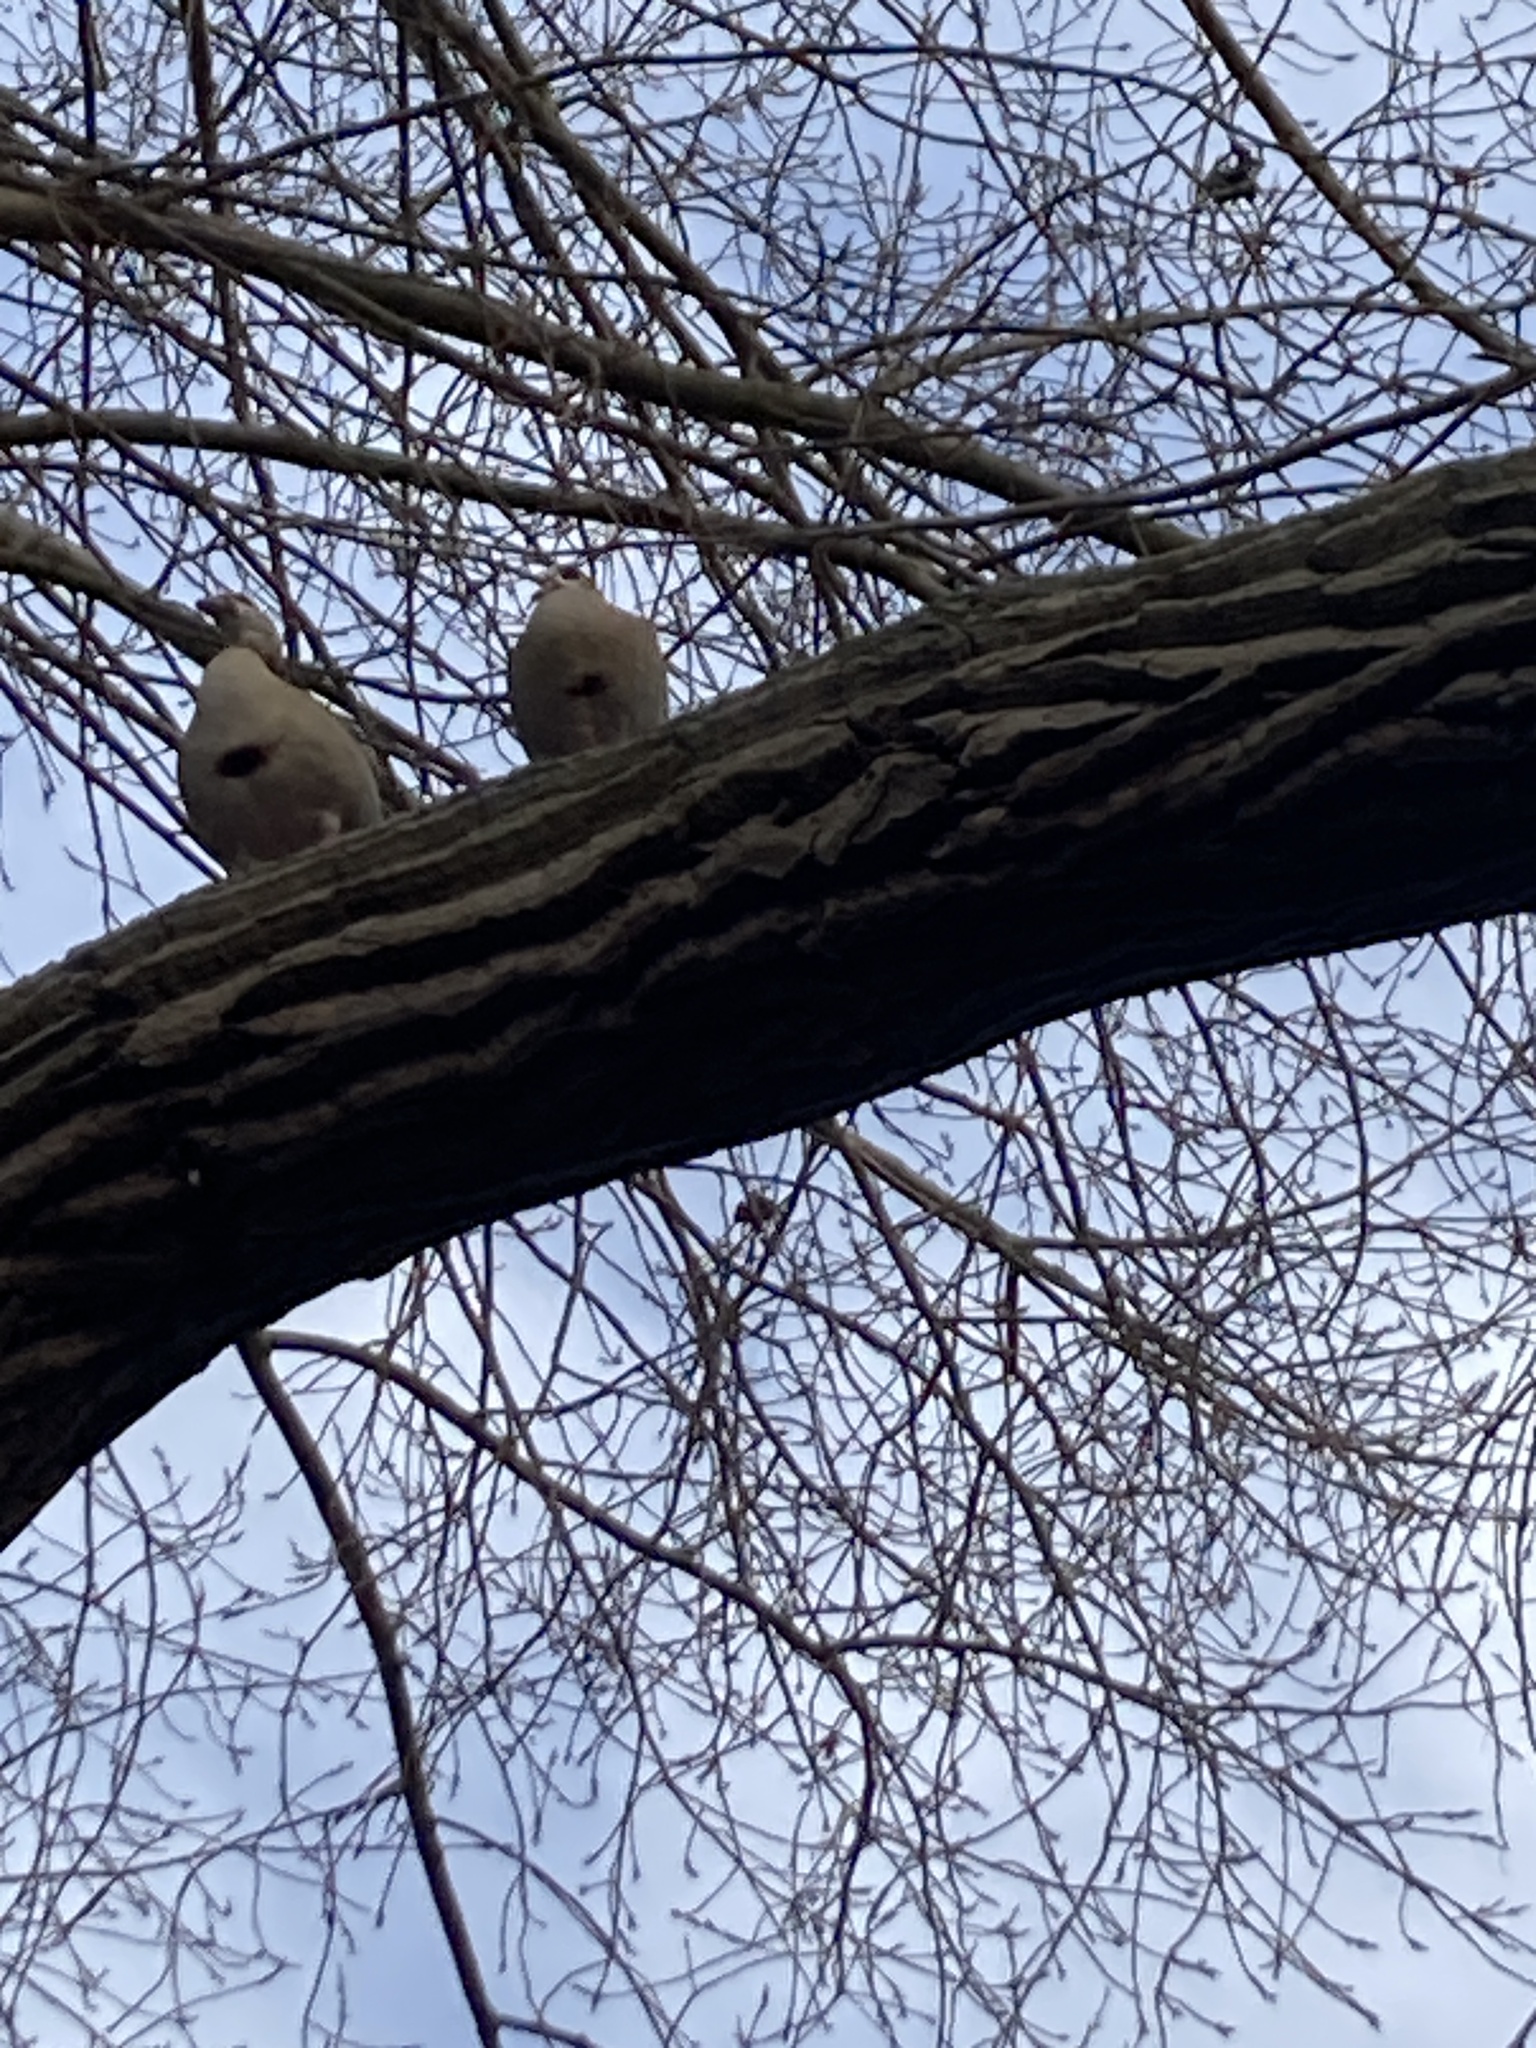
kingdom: Animalia
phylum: Chordata
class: Aves
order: Anseriformes
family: Anatidae
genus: Alopochen
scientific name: Alopochen aegyptiaca
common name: Egyptian goose
